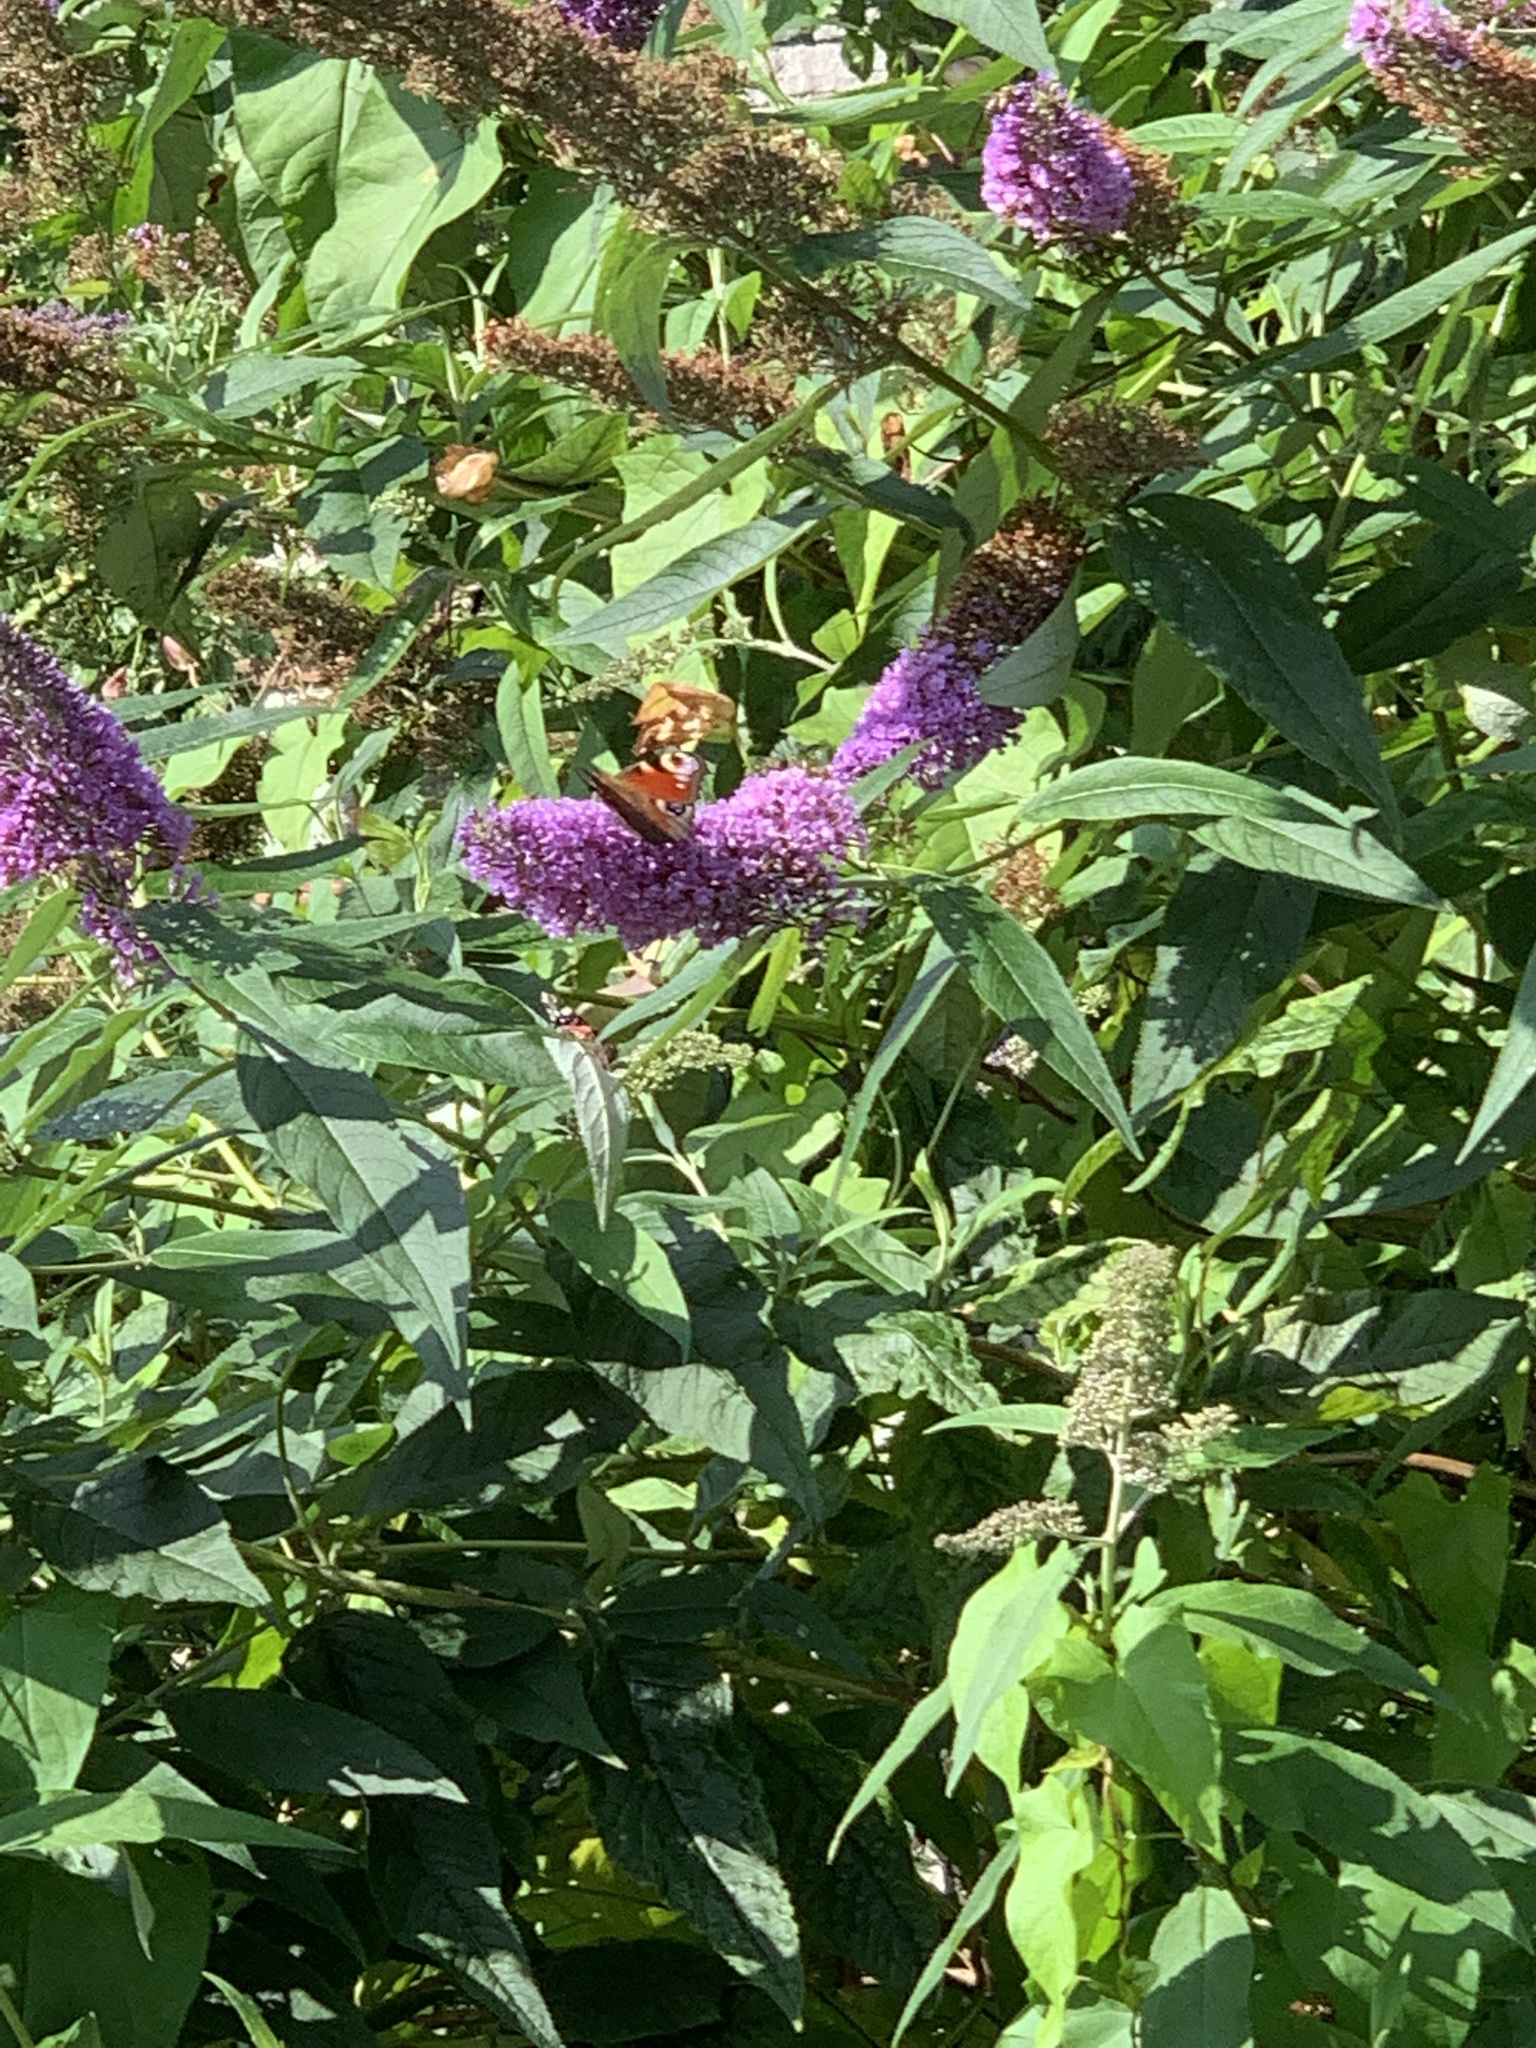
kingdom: Animalia
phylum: Arthropoda
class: Insecta
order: Lepidoptera
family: Nymphalidae
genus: Aglais
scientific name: Aglais io
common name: Peacock
